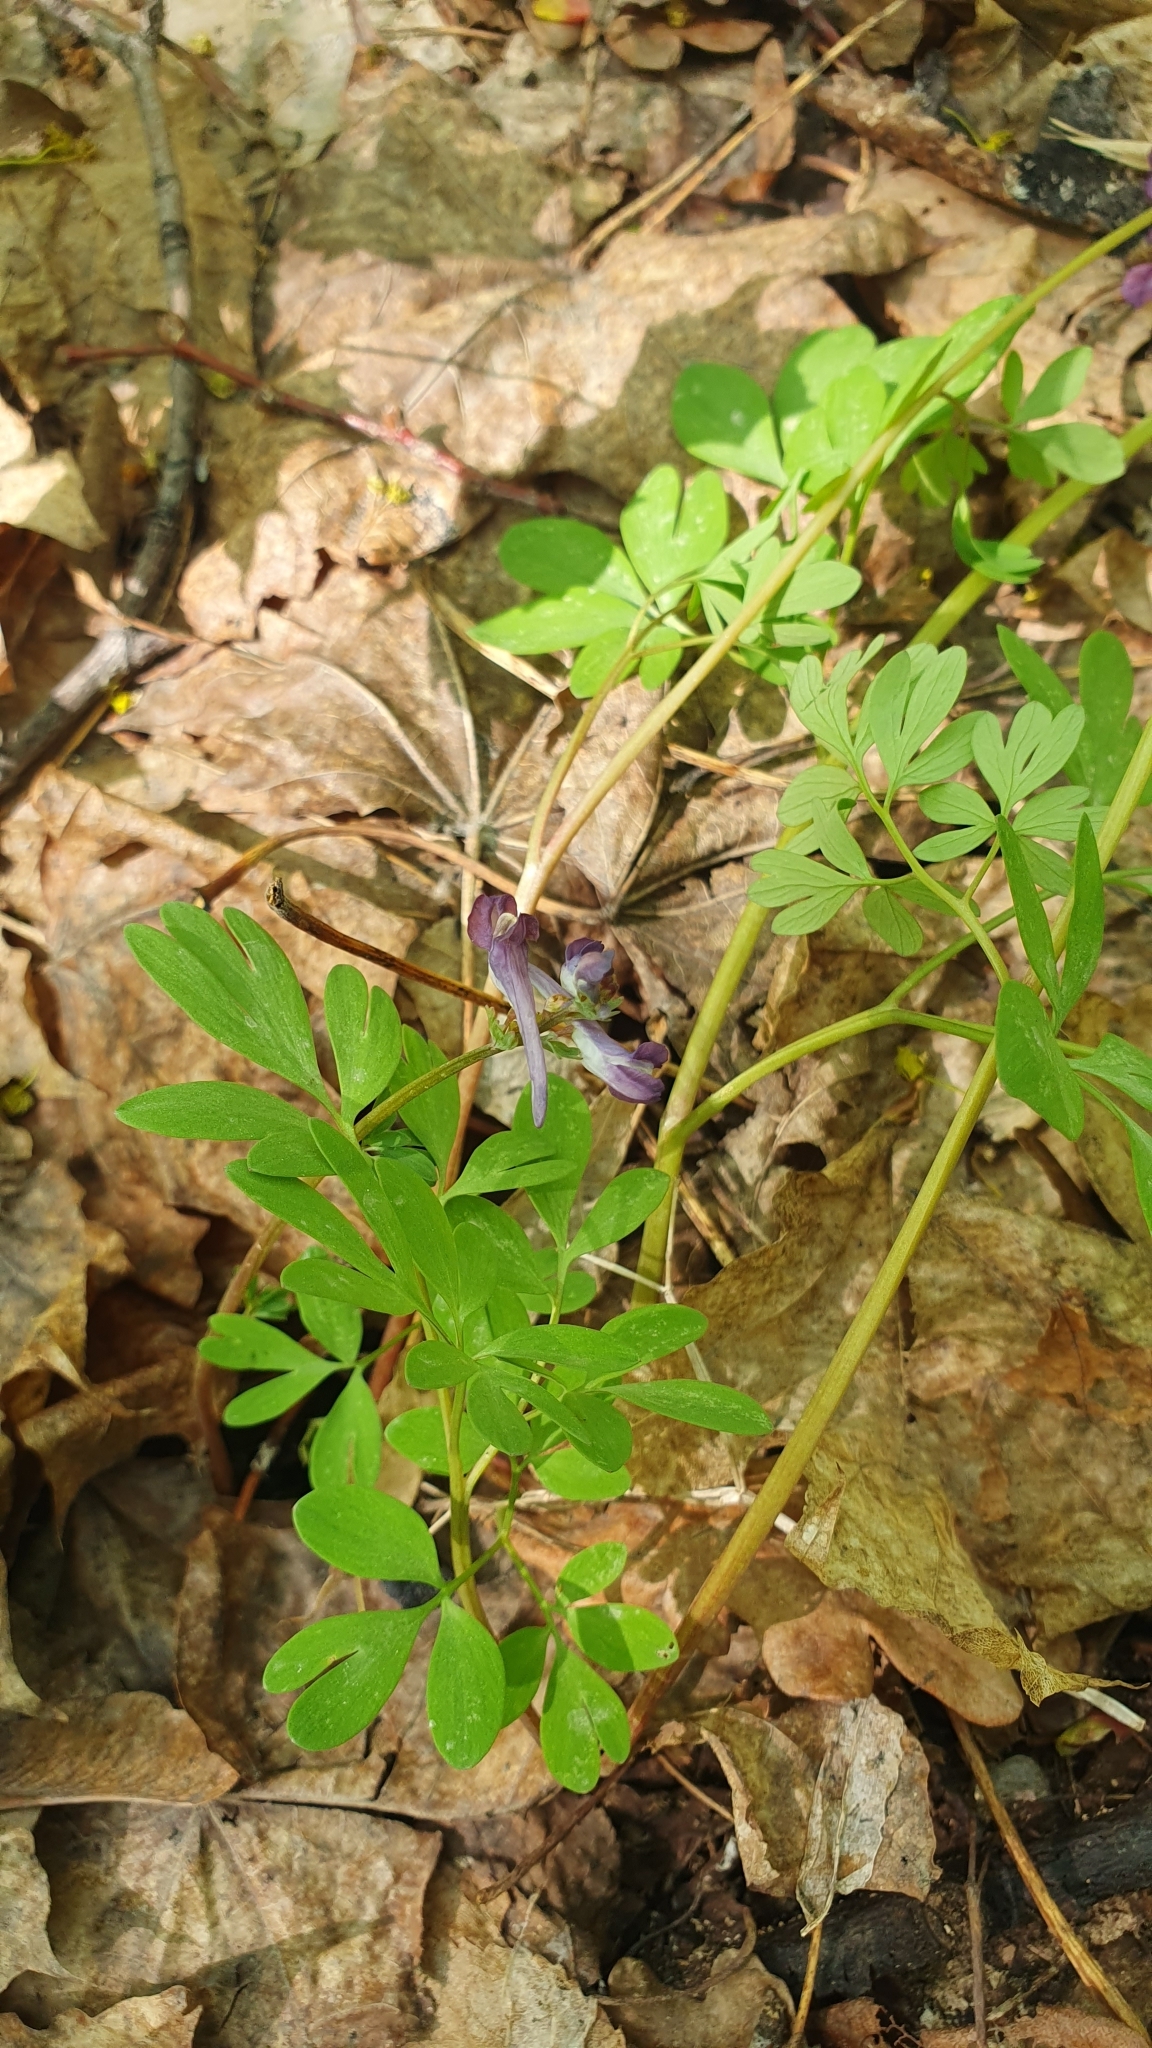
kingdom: Plantae
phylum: Tracheophyta
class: Magnoliopsida
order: Ranunculales
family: Papaveraceae
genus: Corydalis
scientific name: Corydalis solida
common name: Bird-in-a-bush
